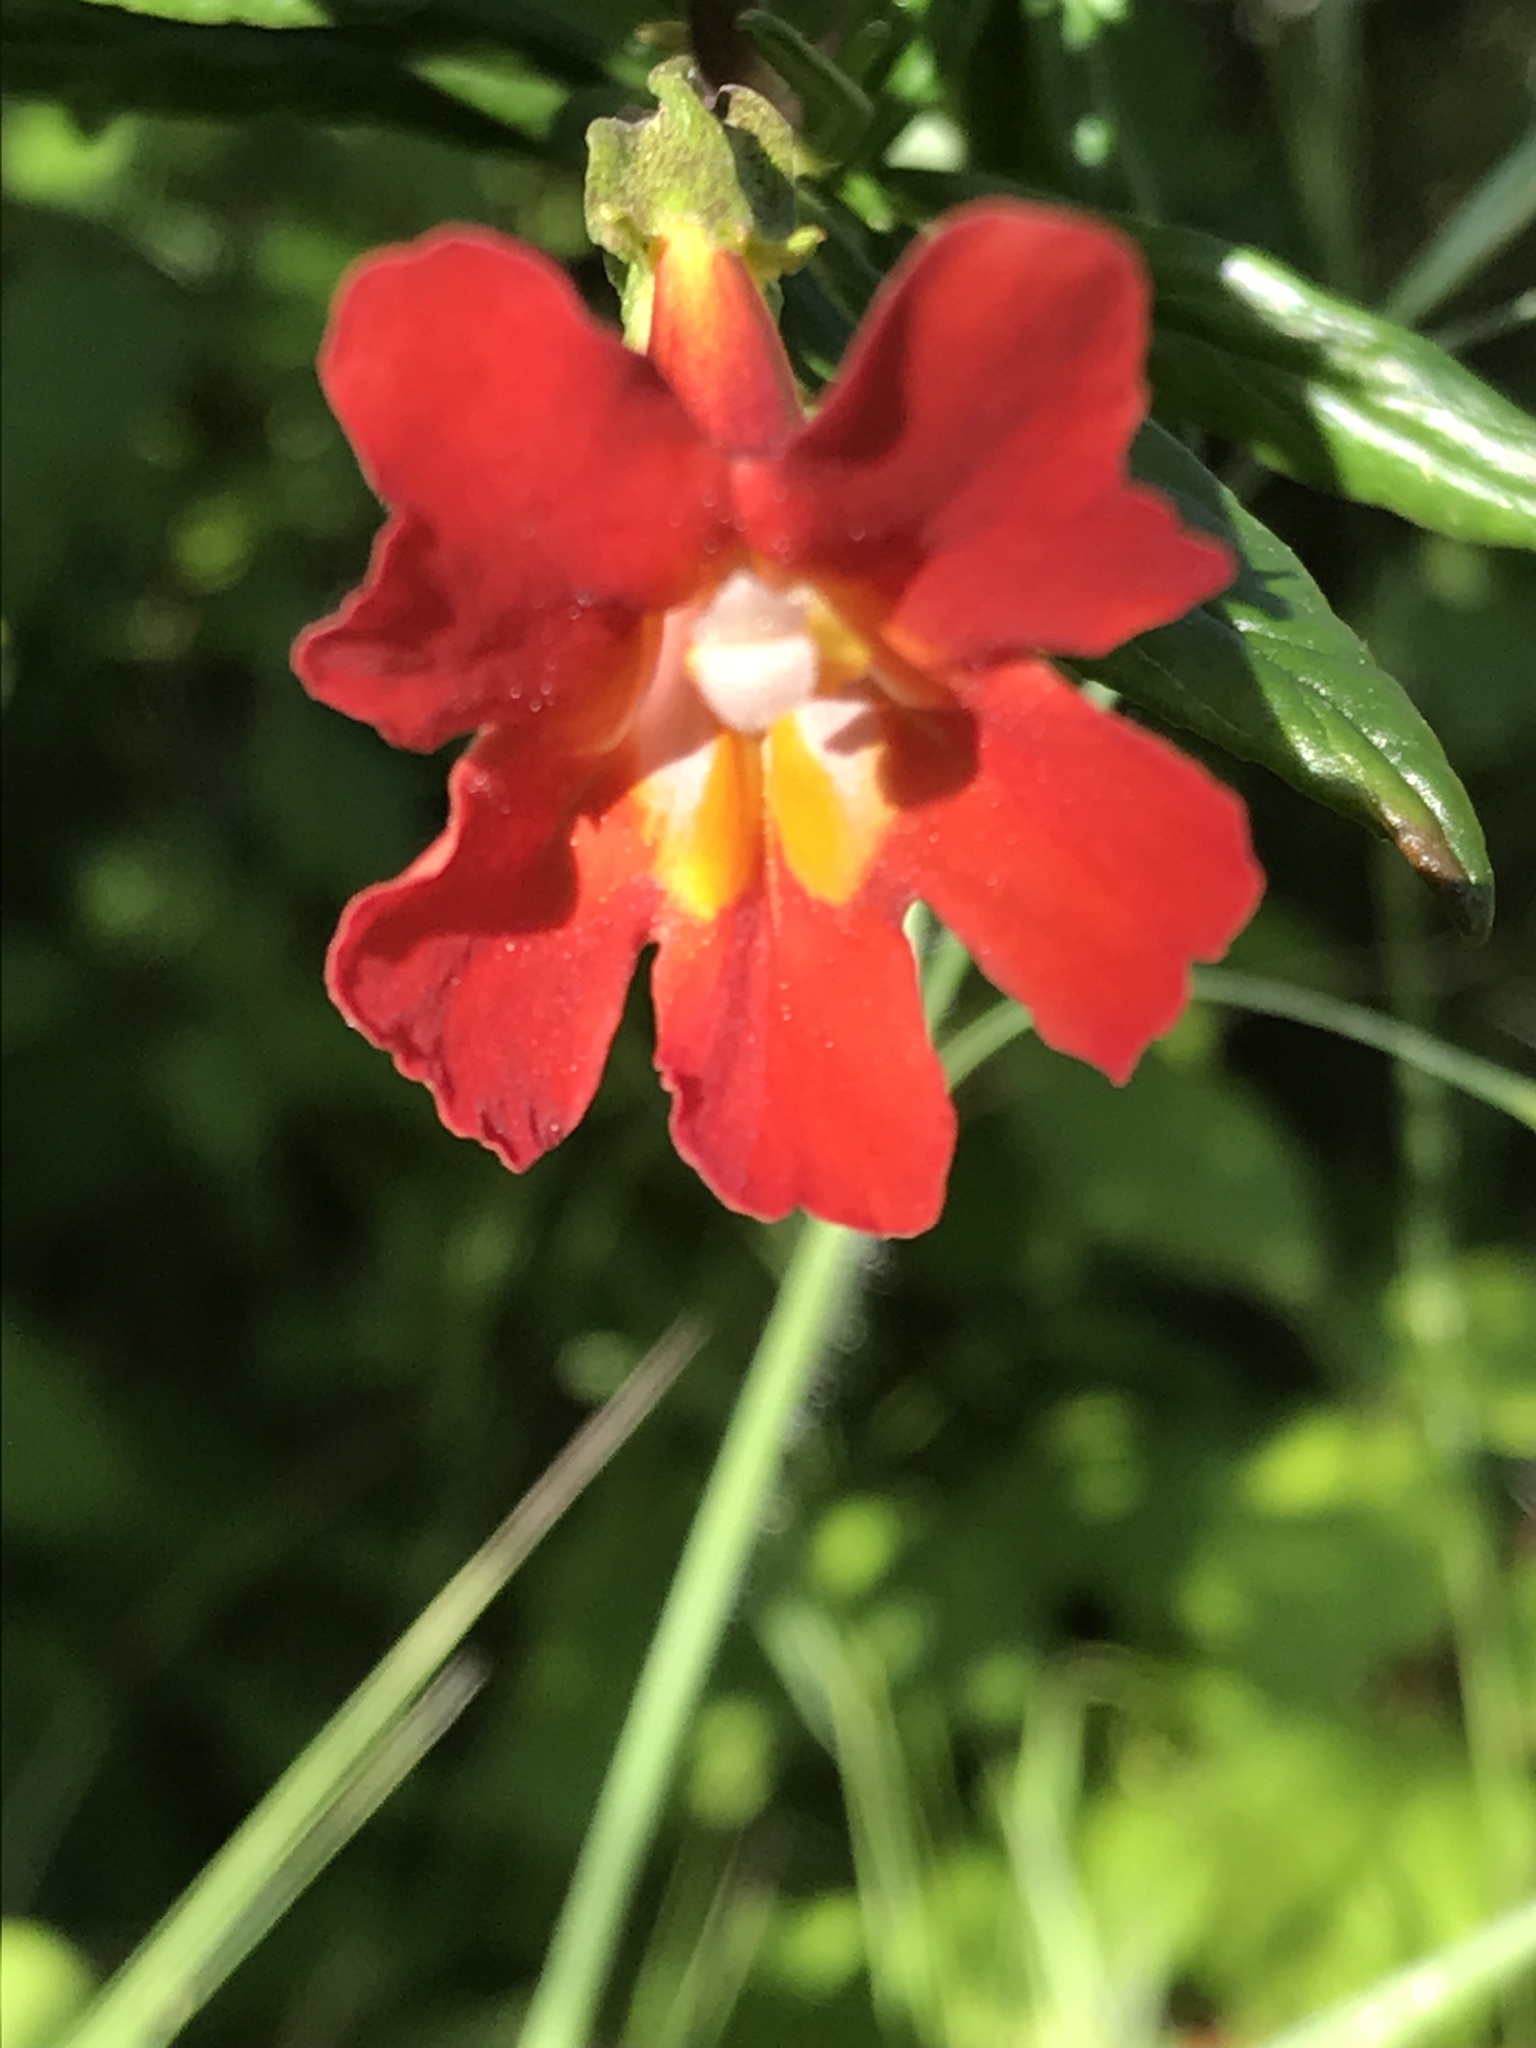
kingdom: Plantae
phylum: Tracheophyta
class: Magnoliopsida
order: Lamiales
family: Phrymaceae
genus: Diplacus
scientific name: Diplacus puniceus
